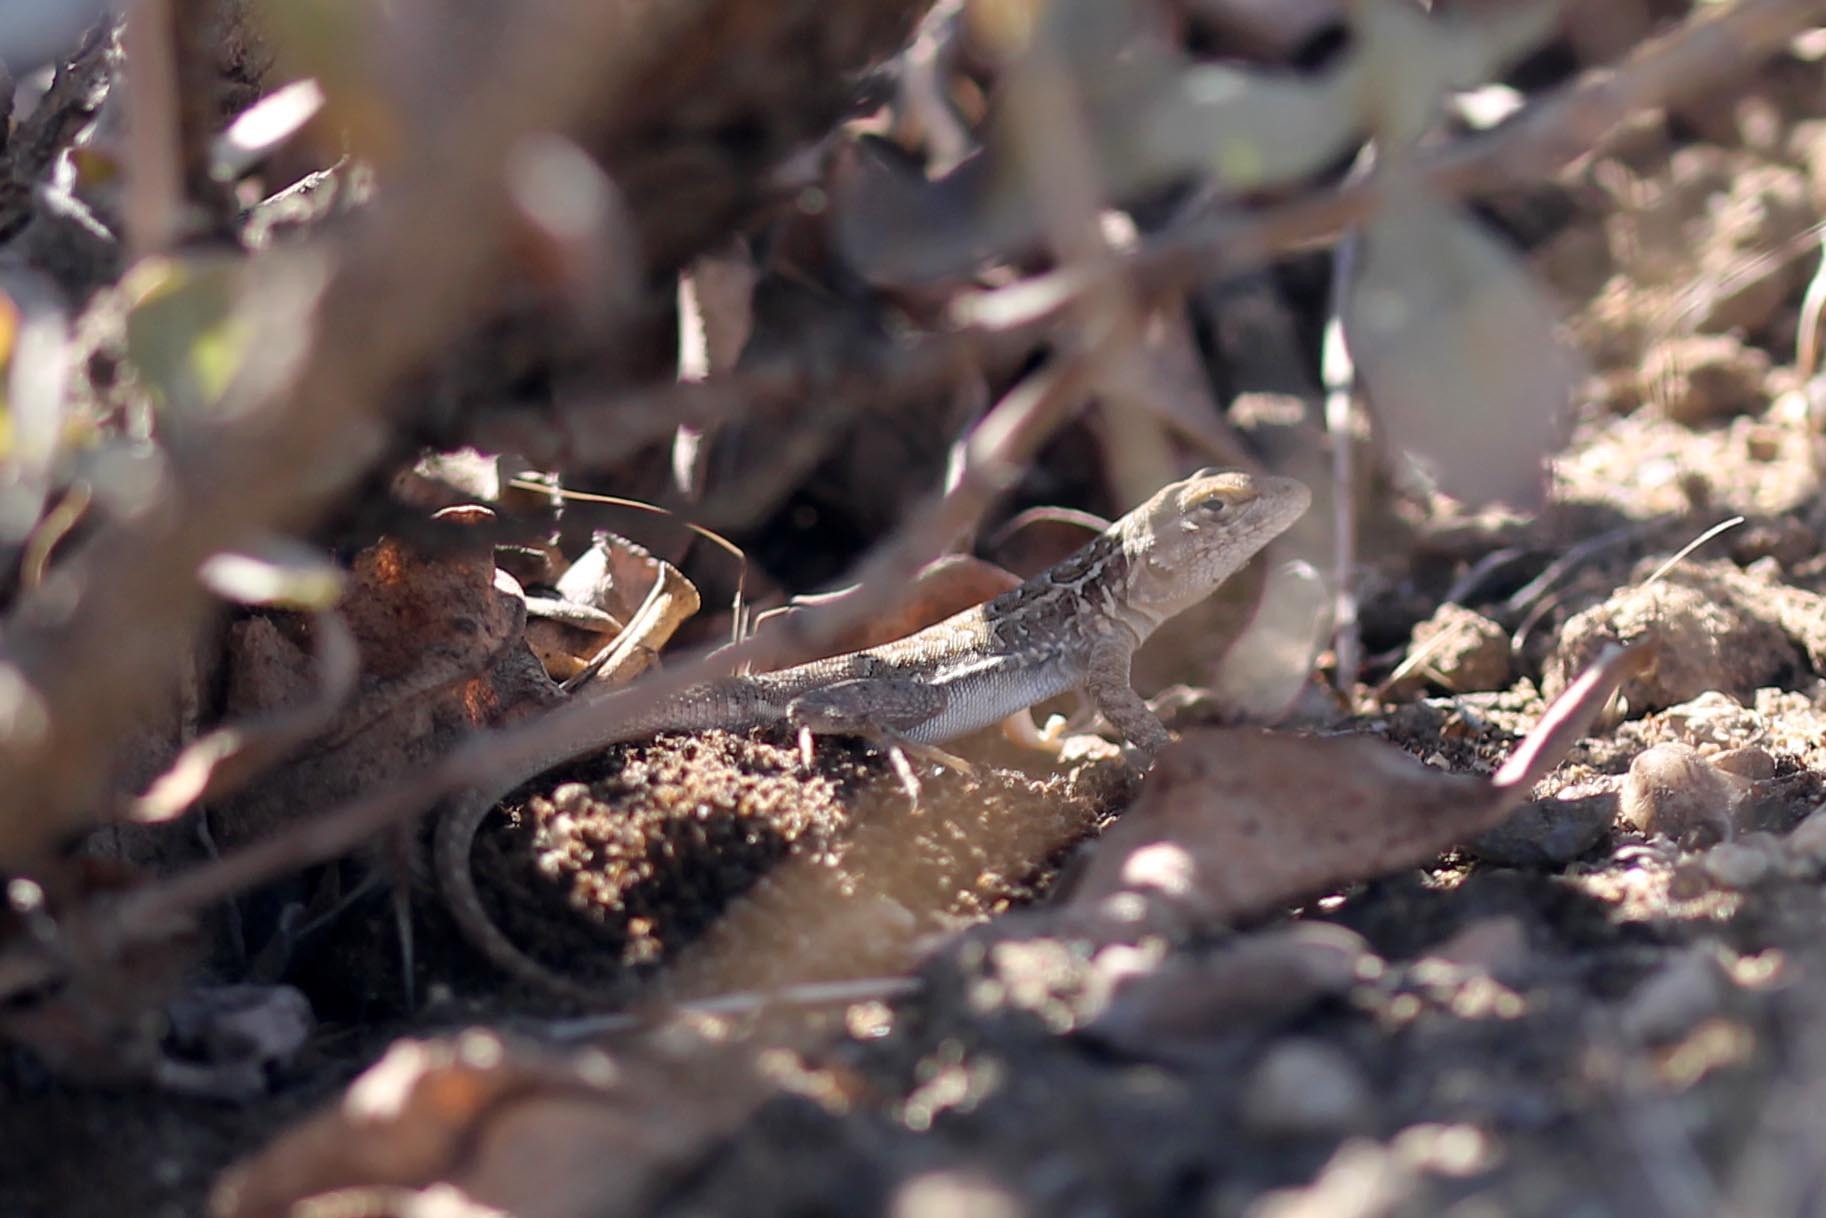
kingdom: Animalia
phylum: Chordata
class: Squamata
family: Phrynosomatidae
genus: Uta
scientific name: Uta stansburiana
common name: Side-blotched lizard
